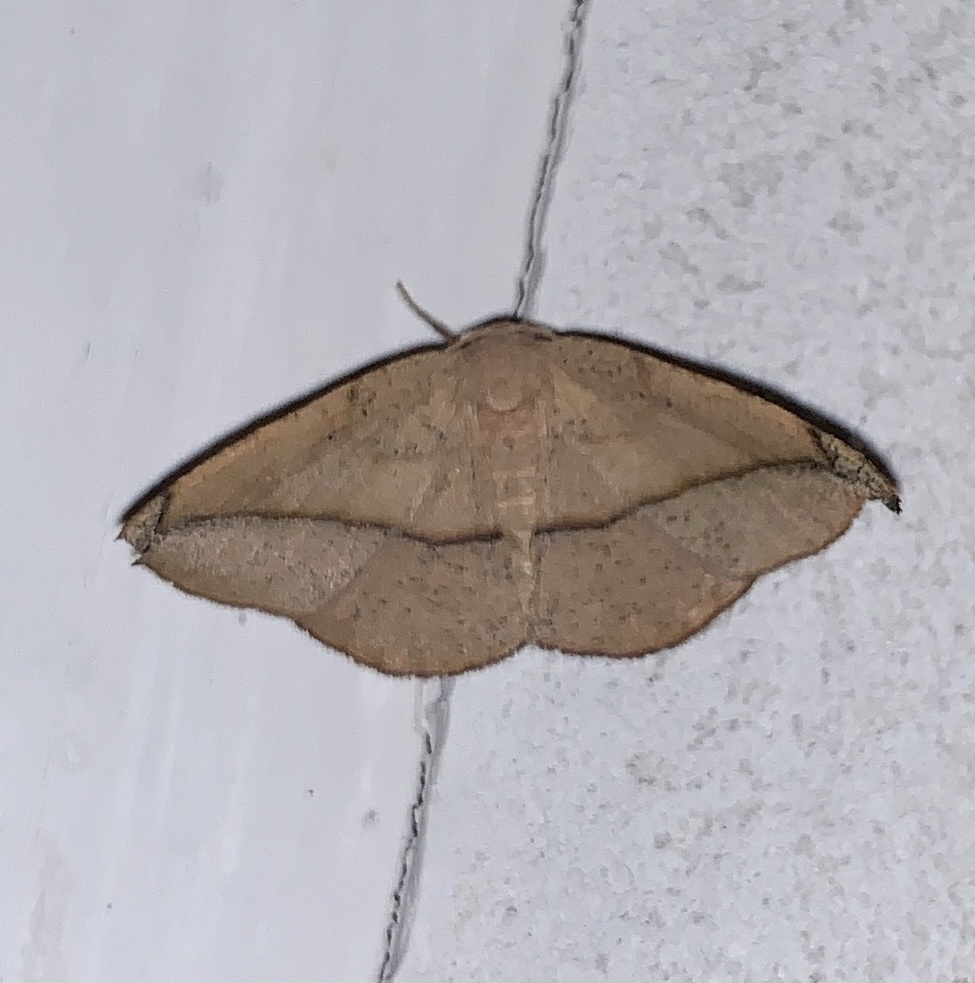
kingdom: Animalia
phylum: Arthropoda
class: Insecta
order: Lepidoptera
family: Geometridae
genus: Patalene
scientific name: Patalene olyzonaria
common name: Juniper geometer moth
